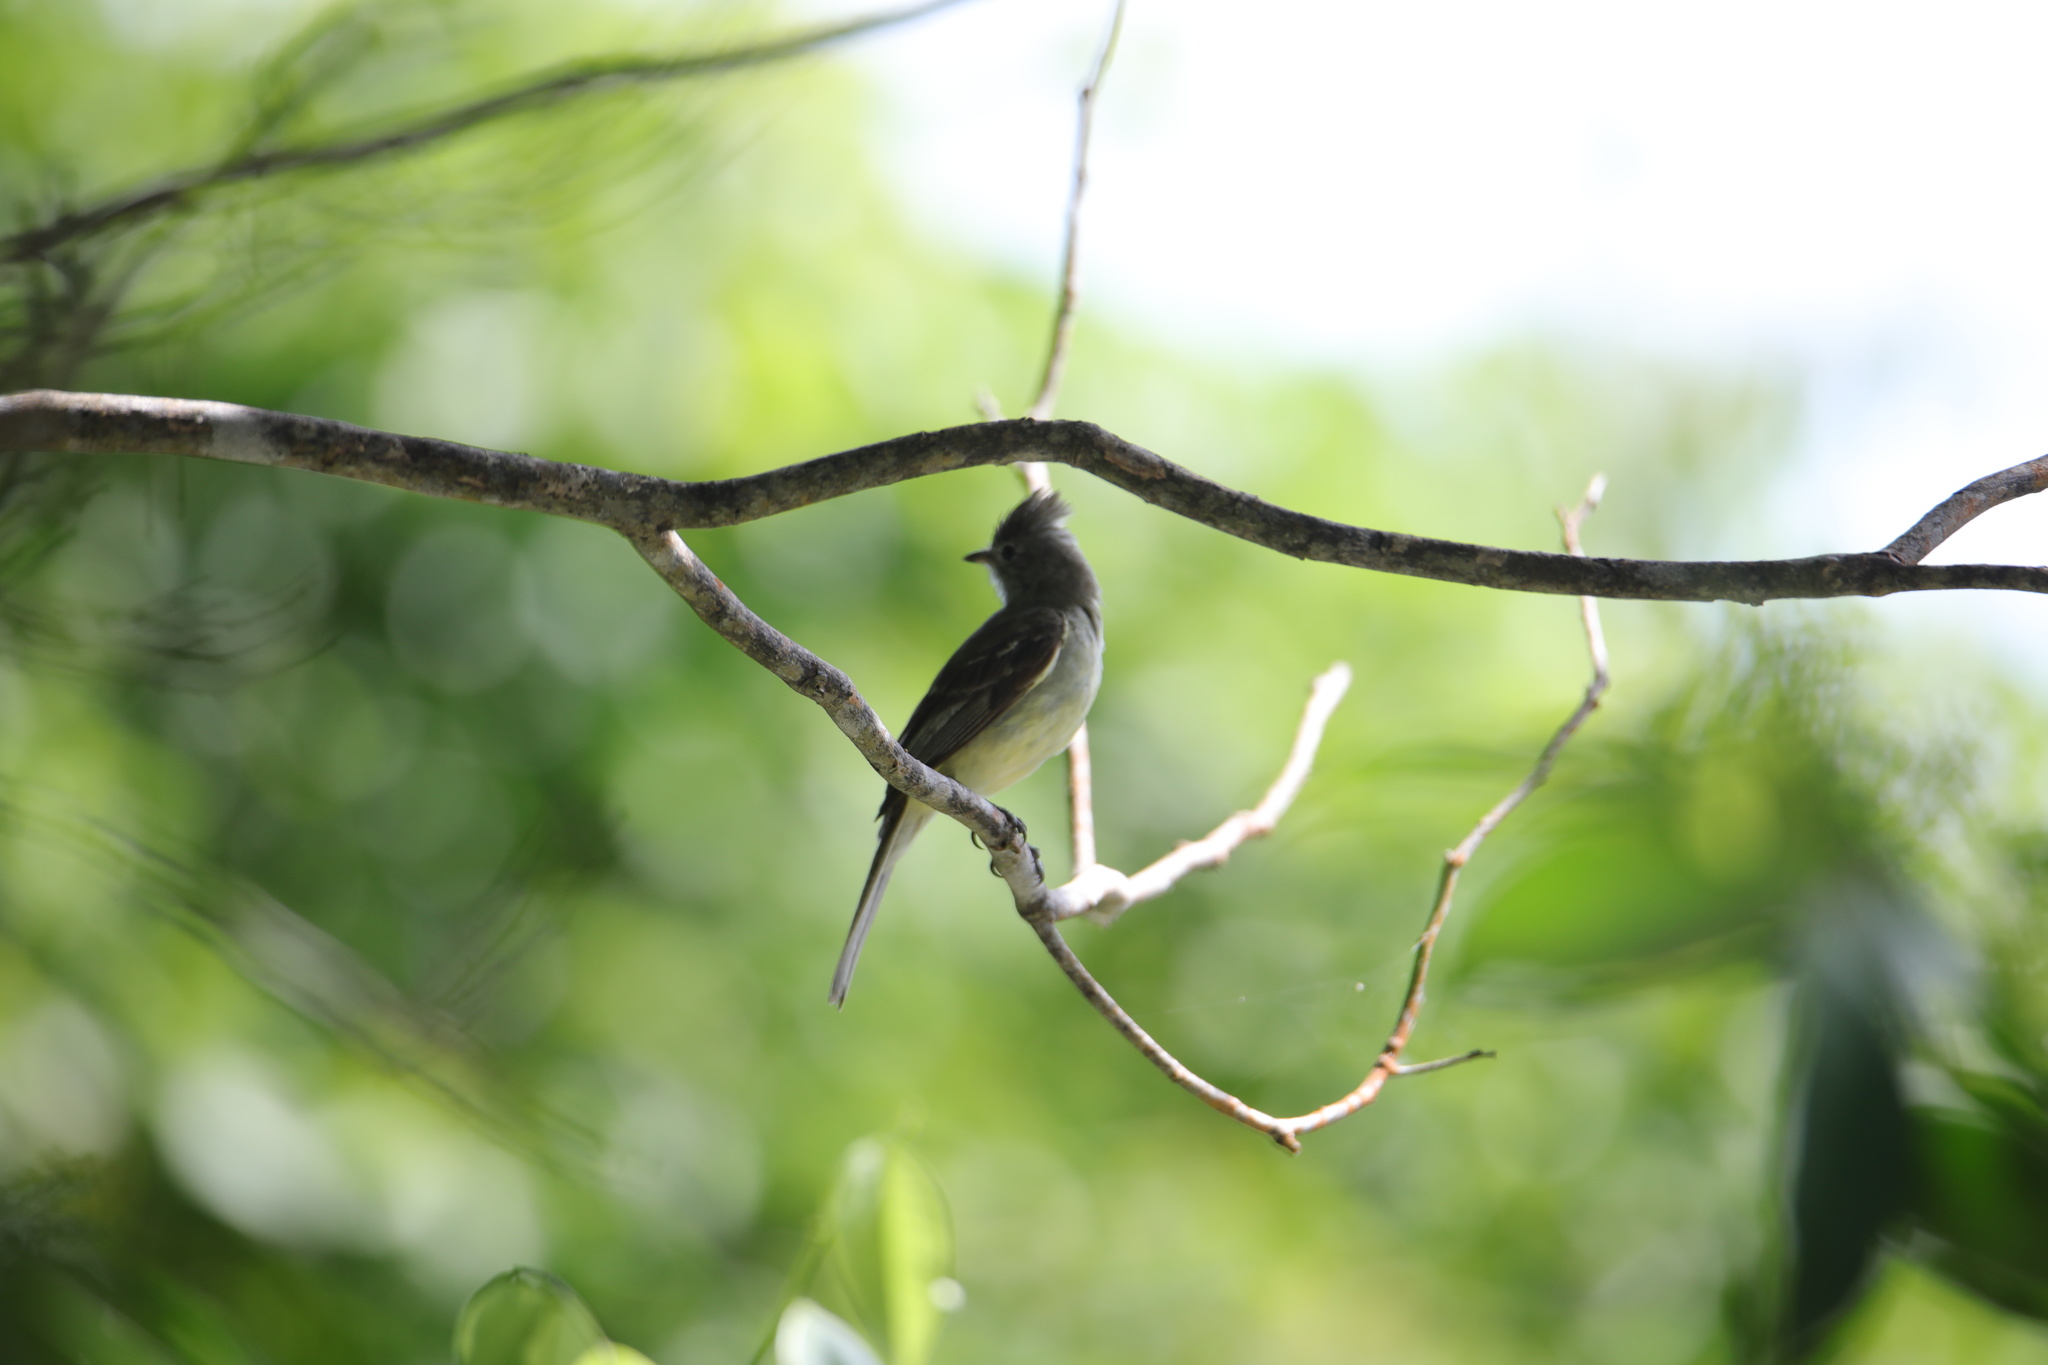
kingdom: Animalia
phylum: Chordata
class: Aves
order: Passeriformes
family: Tyrannidae
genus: Elaenia
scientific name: Elaenia flavogaster
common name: Yellow-bellied elaenia
